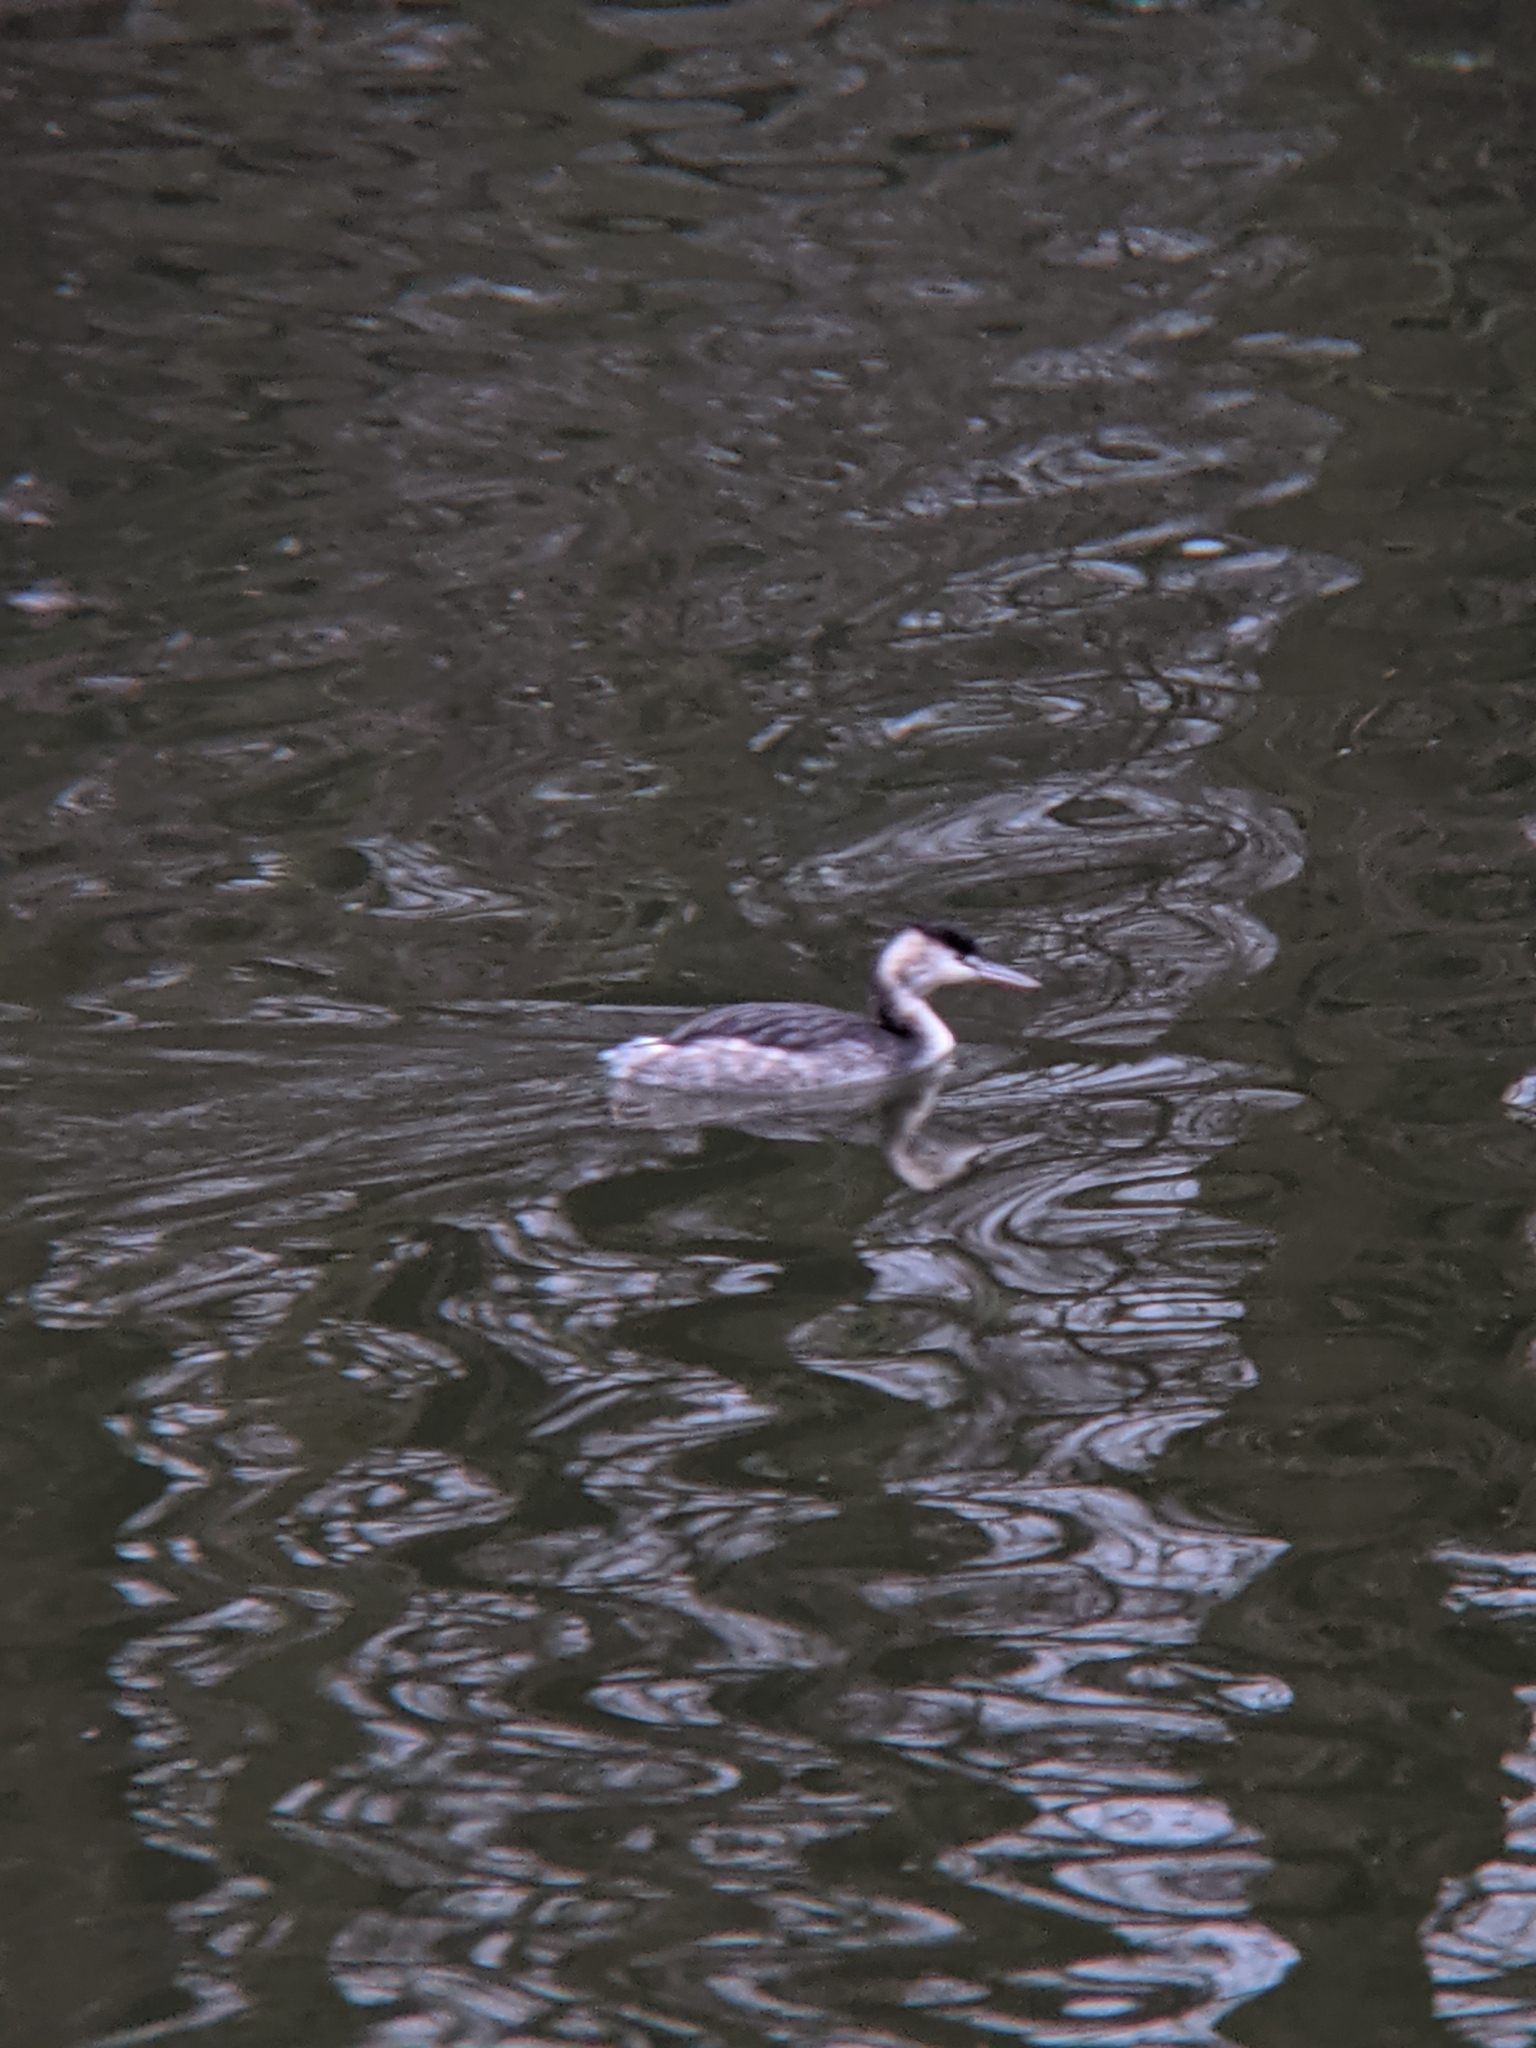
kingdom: Animalia
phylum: Chordata
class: Aves
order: Podicipediformes
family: Podicipedidae
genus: Podiceps
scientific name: Podiceps cristatus
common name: Great crested grebe
